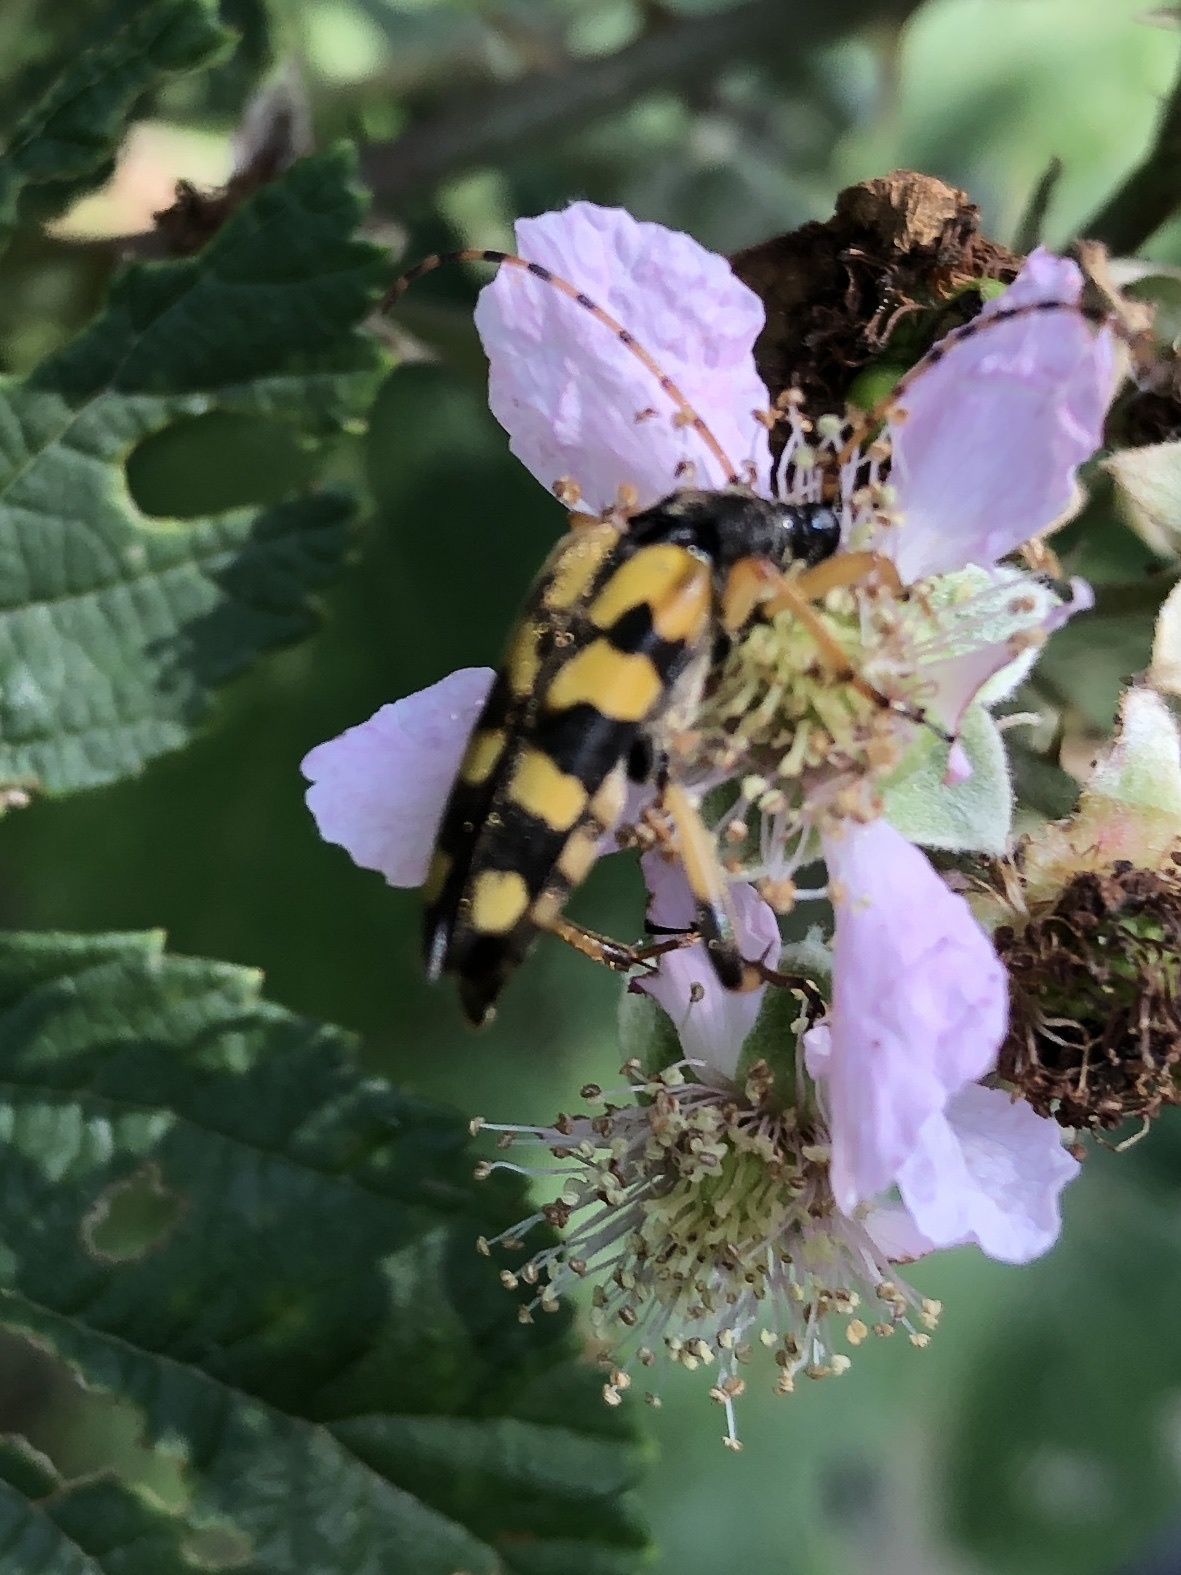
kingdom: Animalia
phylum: Arthropoda
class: Insecta
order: Coleoptera
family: Cerambycidae
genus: Rutpela
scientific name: Rutpela maculata
